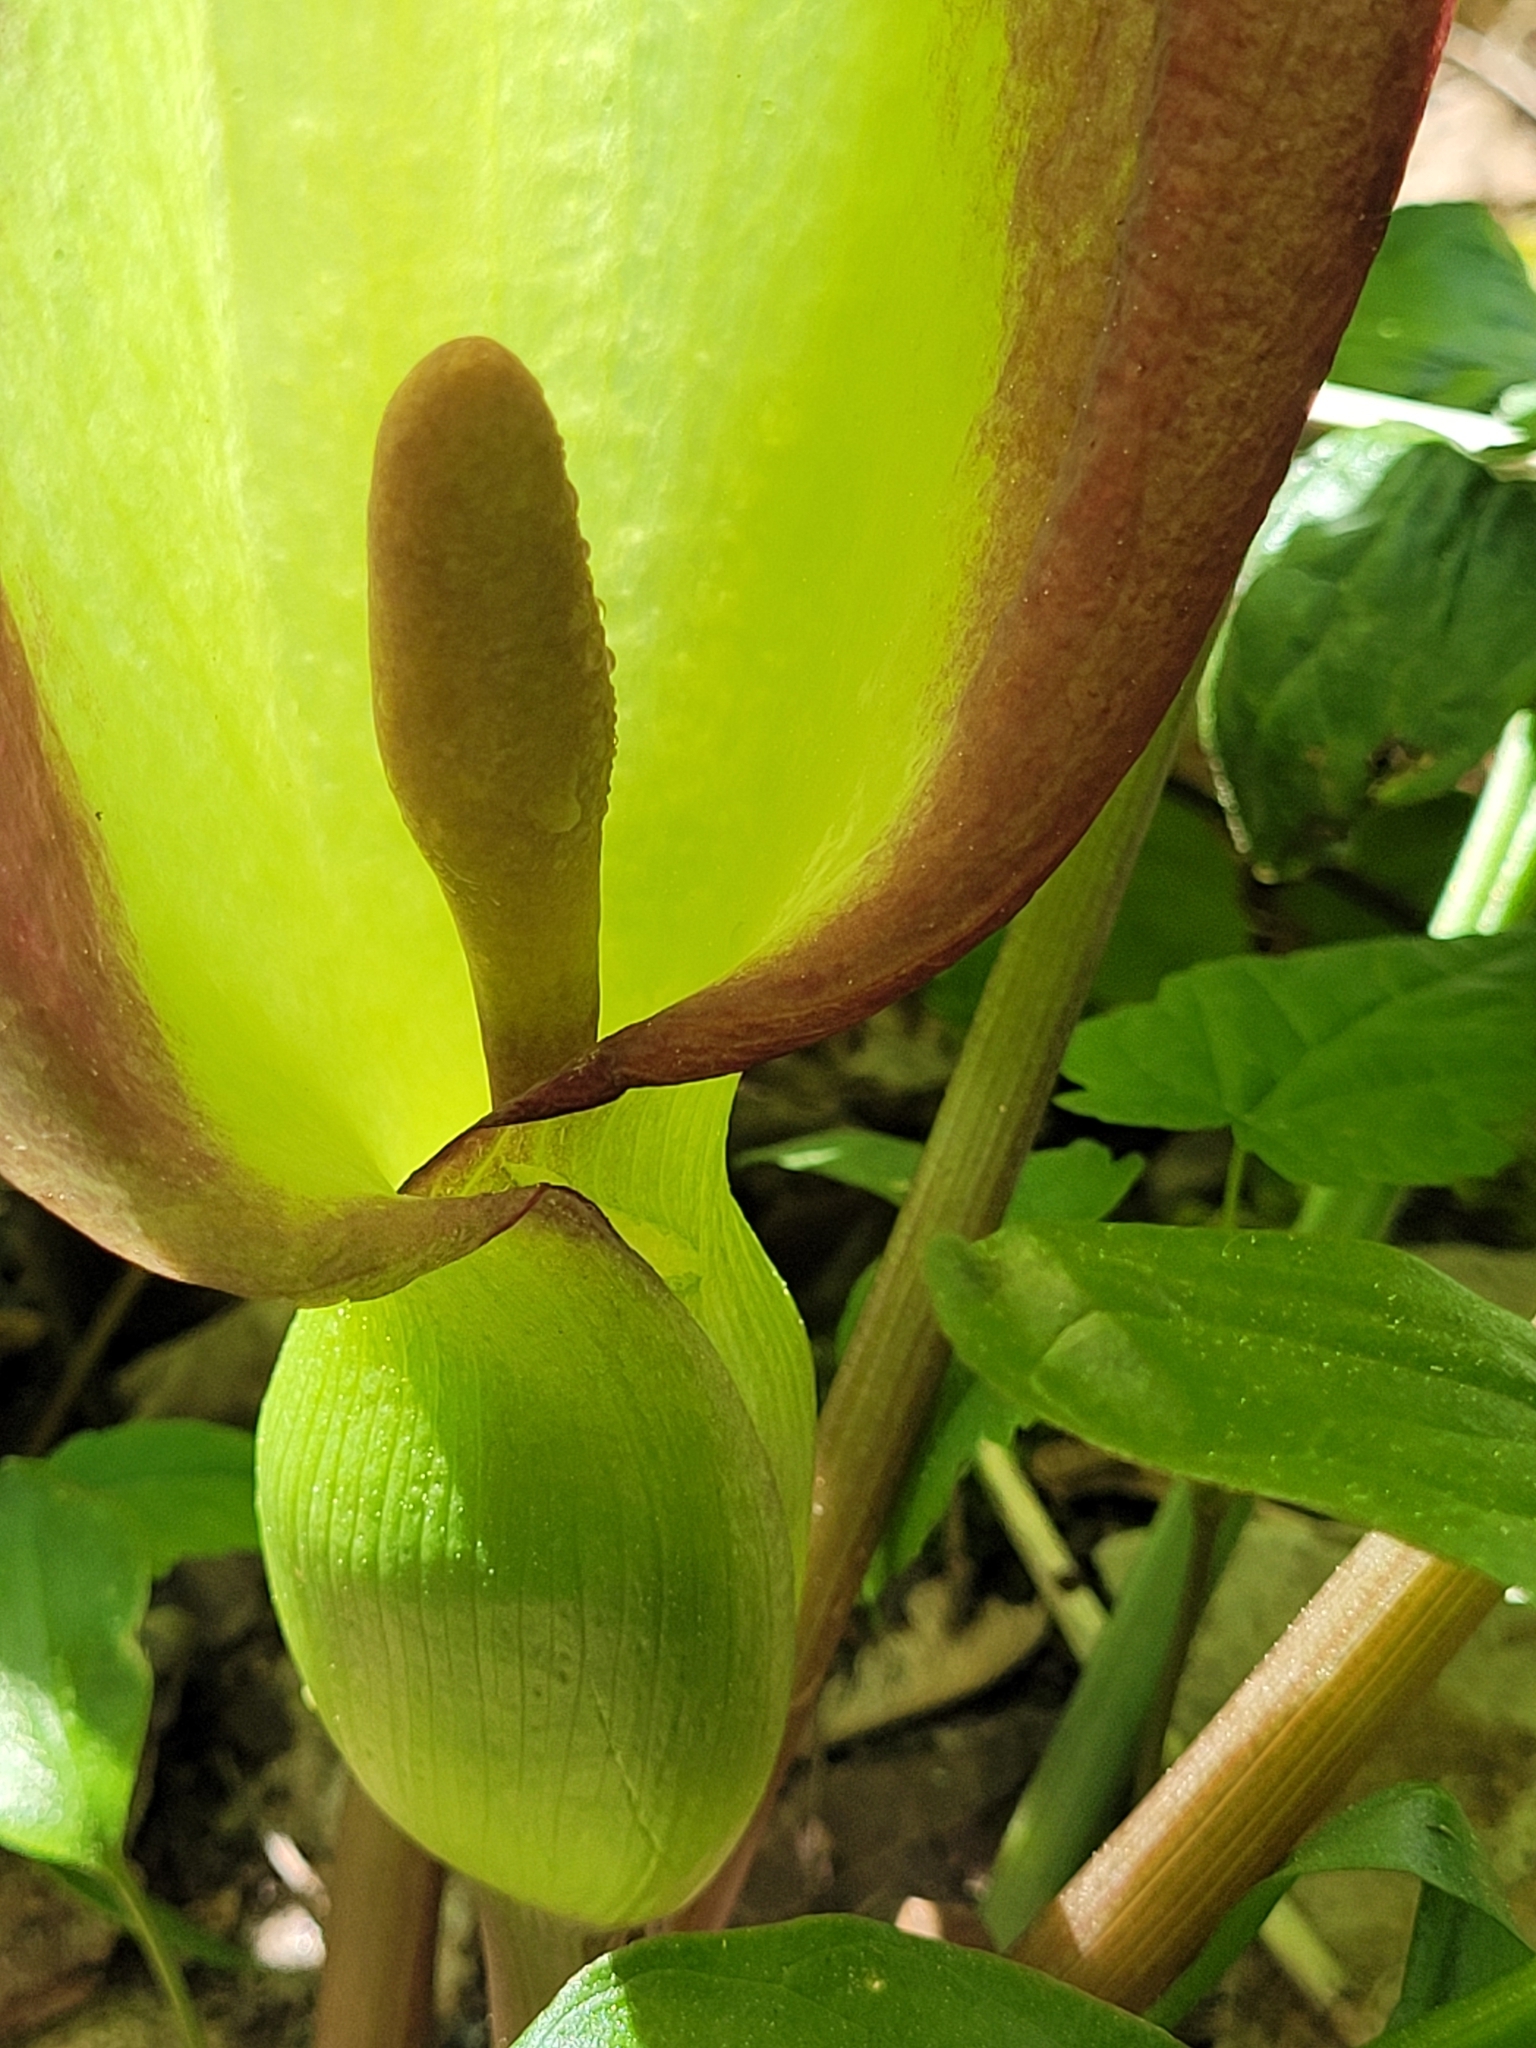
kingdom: Plantae
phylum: Tracheophyta
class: Liliopsida
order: Alismatales
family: Araceae
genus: Arum
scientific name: Arum maculatum
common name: Lords-and-ladies
